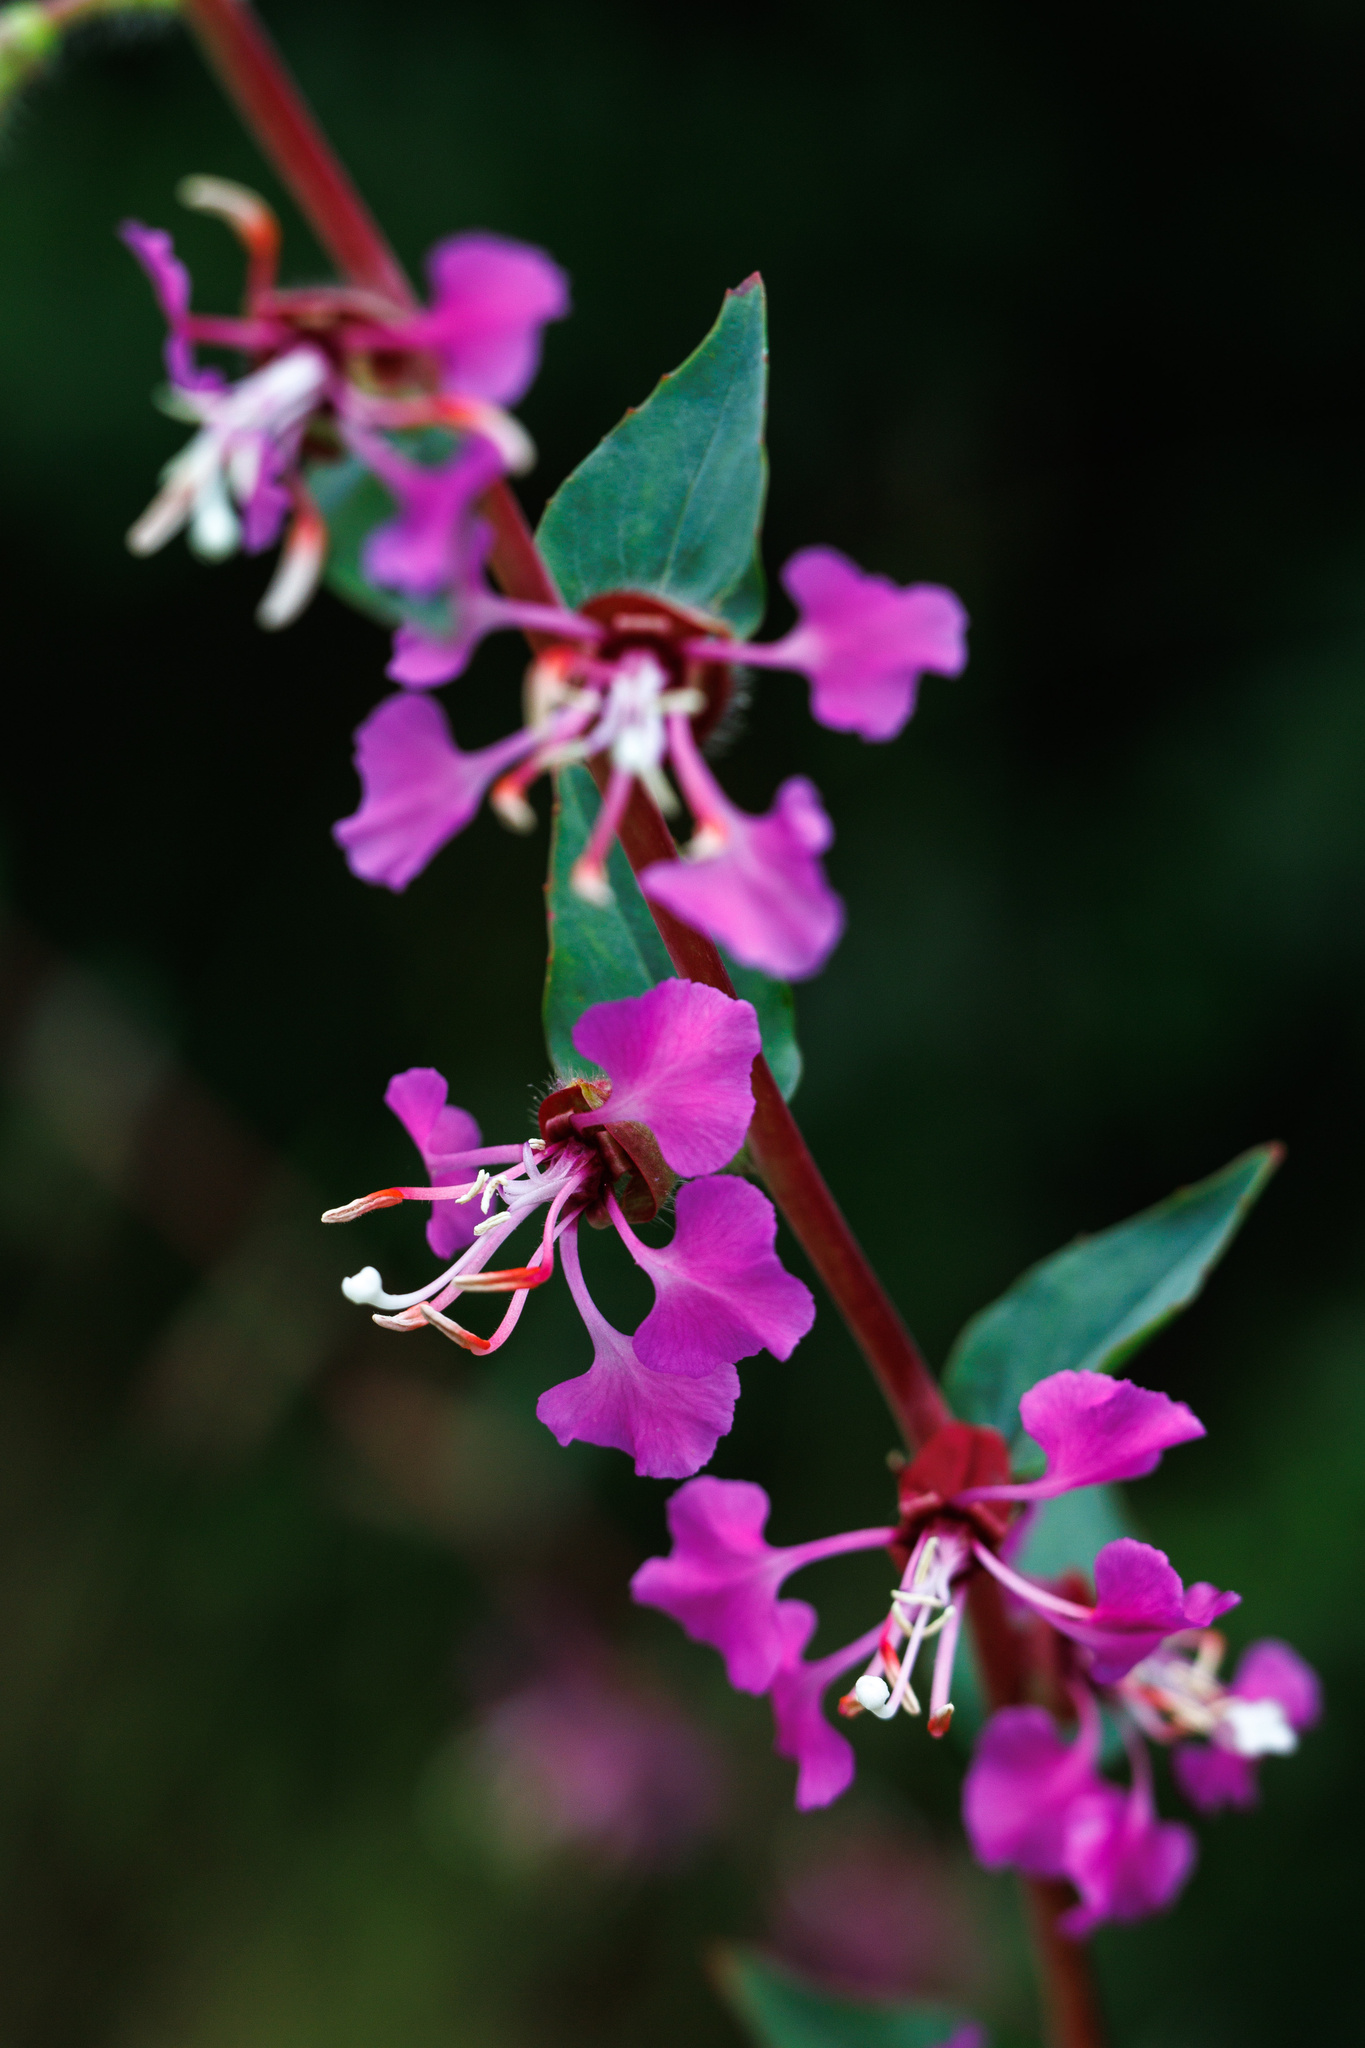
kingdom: Plantae
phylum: Tracheophyta
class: Magnoliopsida
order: Myrtales
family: Onagraceae
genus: Clarkia
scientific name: Clarkia unguiculata
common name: Clarkia
